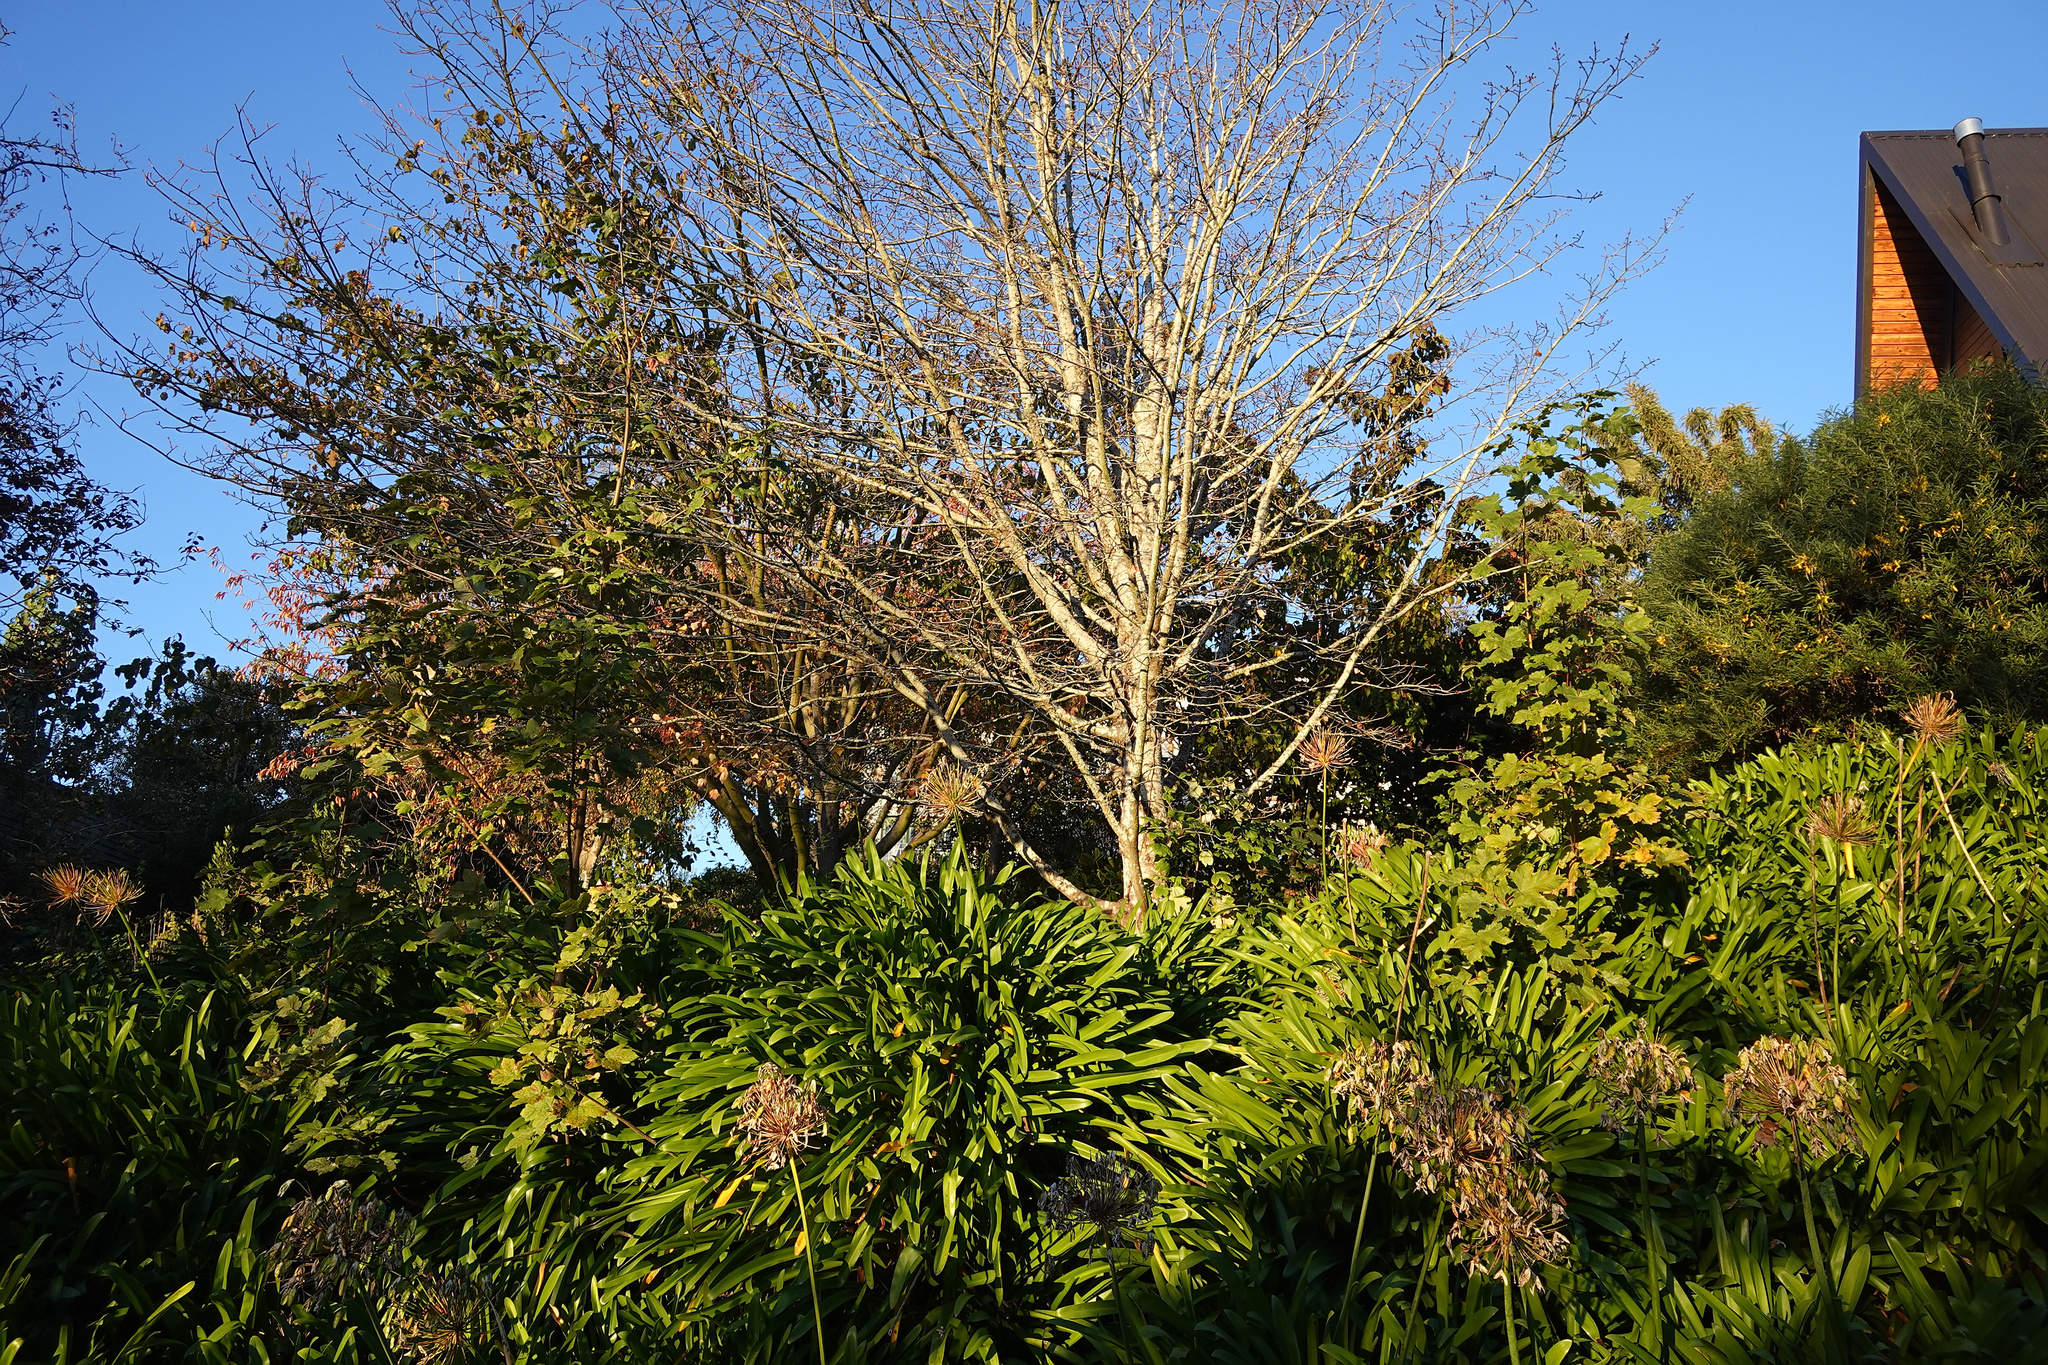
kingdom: Plantae
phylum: Tracheophyta
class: Magnoliopsida
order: Sapindales
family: Sapindaceae
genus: Acer
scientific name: Acer pseudoplatanus
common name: Sycamore
